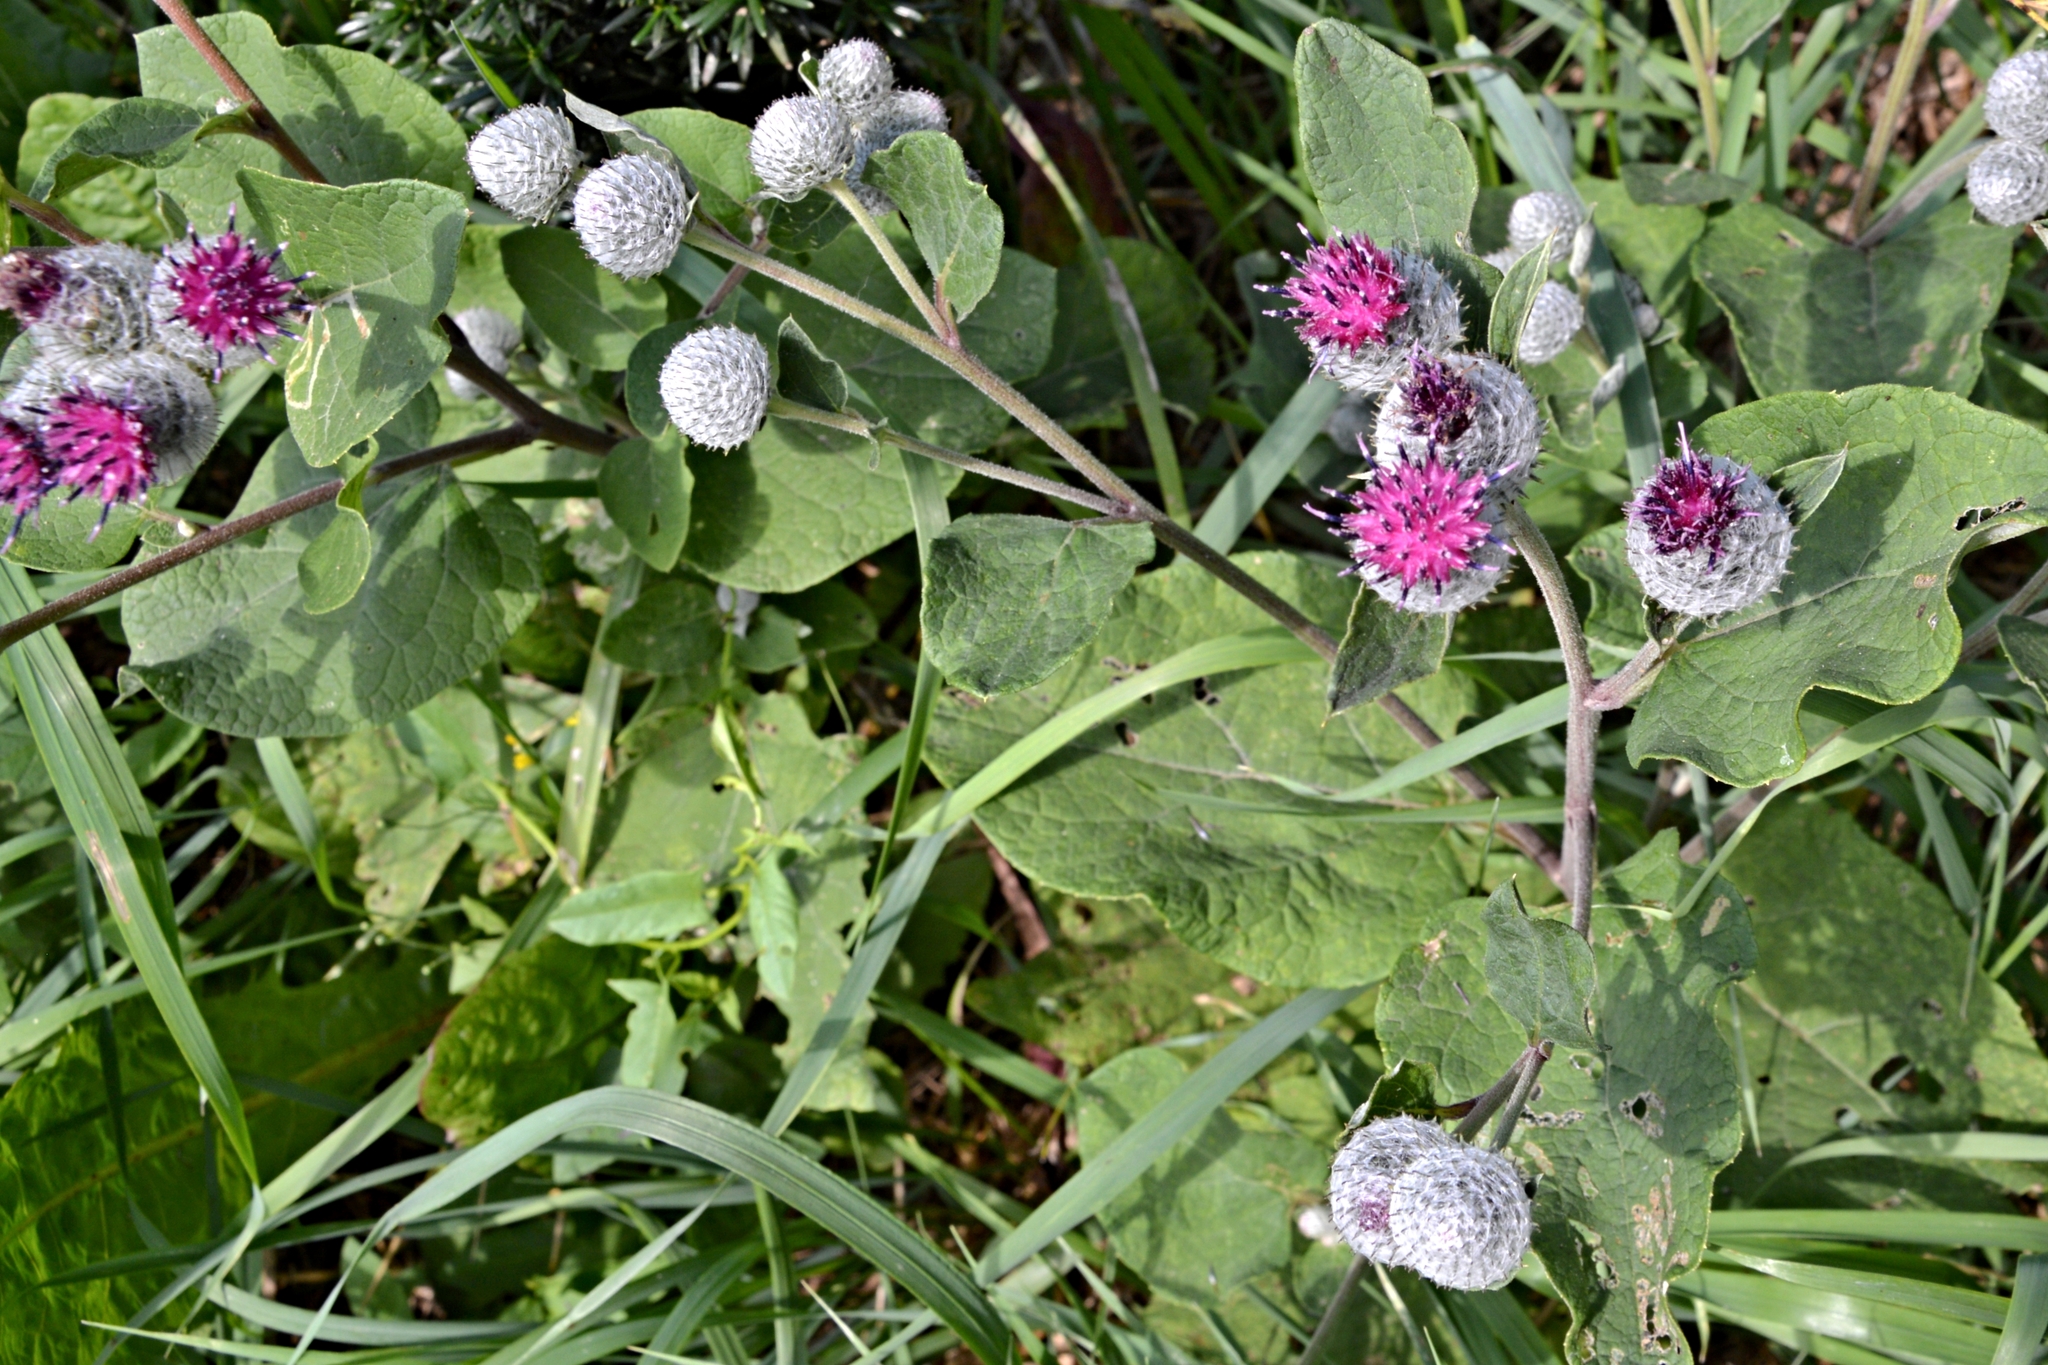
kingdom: Plantae
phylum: Tracheophyta
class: Magnoliopsida
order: Asterales
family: Asteraceae
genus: Arctium
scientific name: Arctium tomentosum
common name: Woolly burdock
